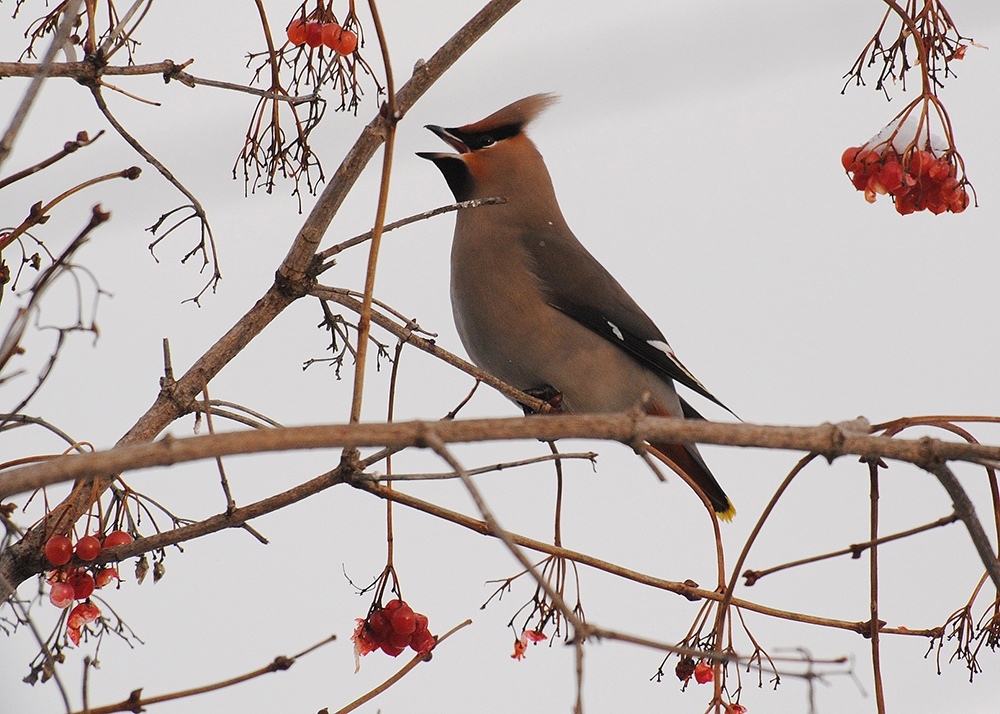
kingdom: Animalia
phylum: Chordata
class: Aves
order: Passeriformes
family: Bombycillidae
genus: Bombycilla
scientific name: Bombycilla garrulus
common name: Bohemian waxwing
